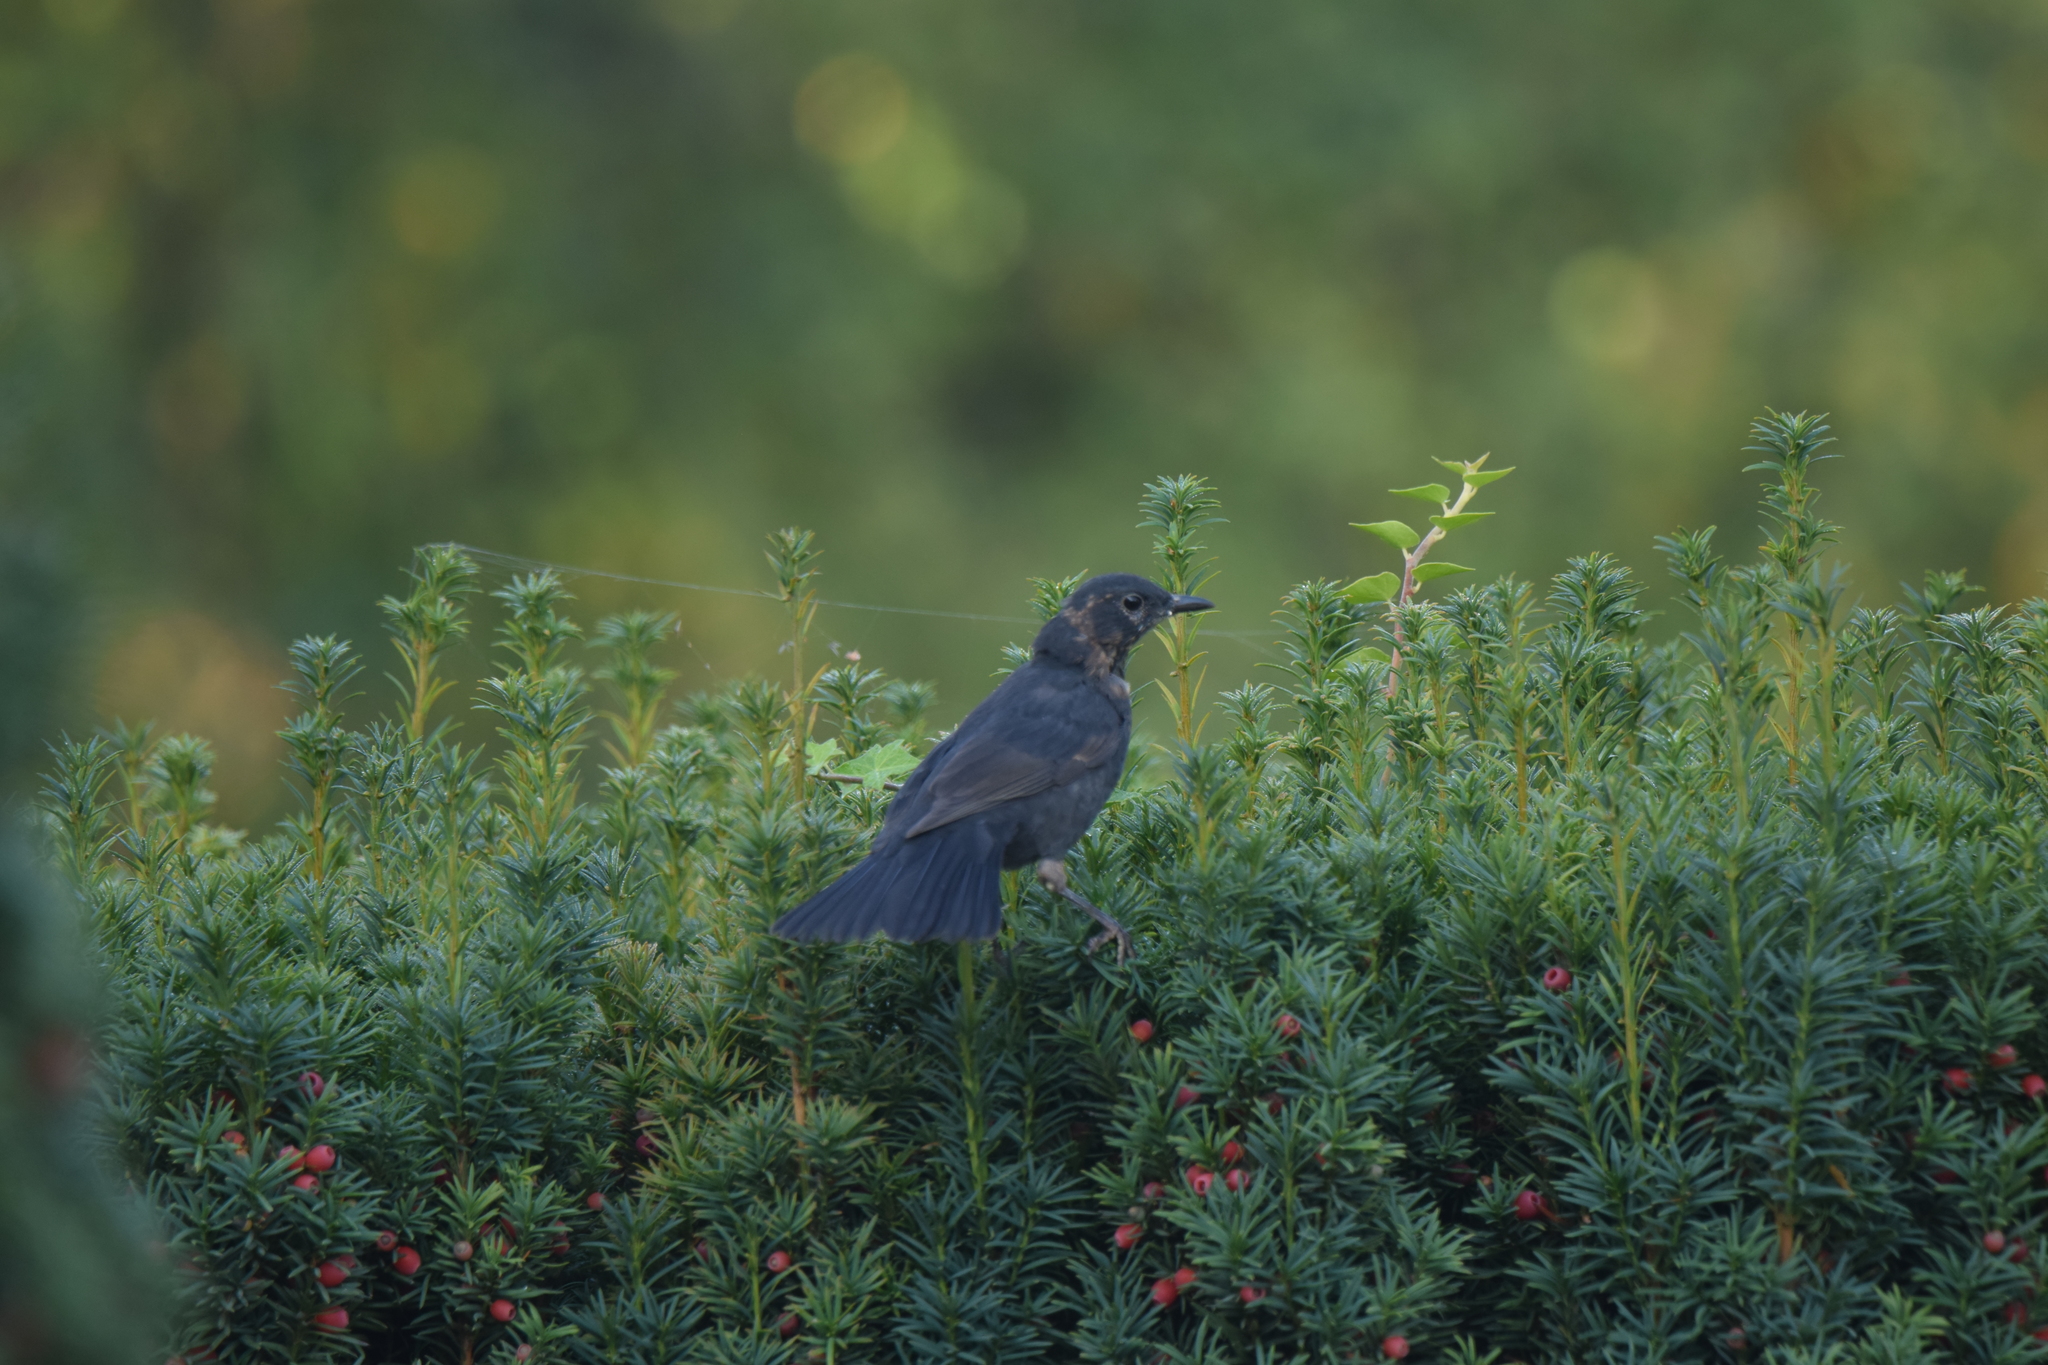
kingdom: Animalia
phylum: Chordata
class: Aves
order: Passeriformes
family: Turdidae
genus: Turdus
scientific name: Turdus merula
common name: Common blackbird
